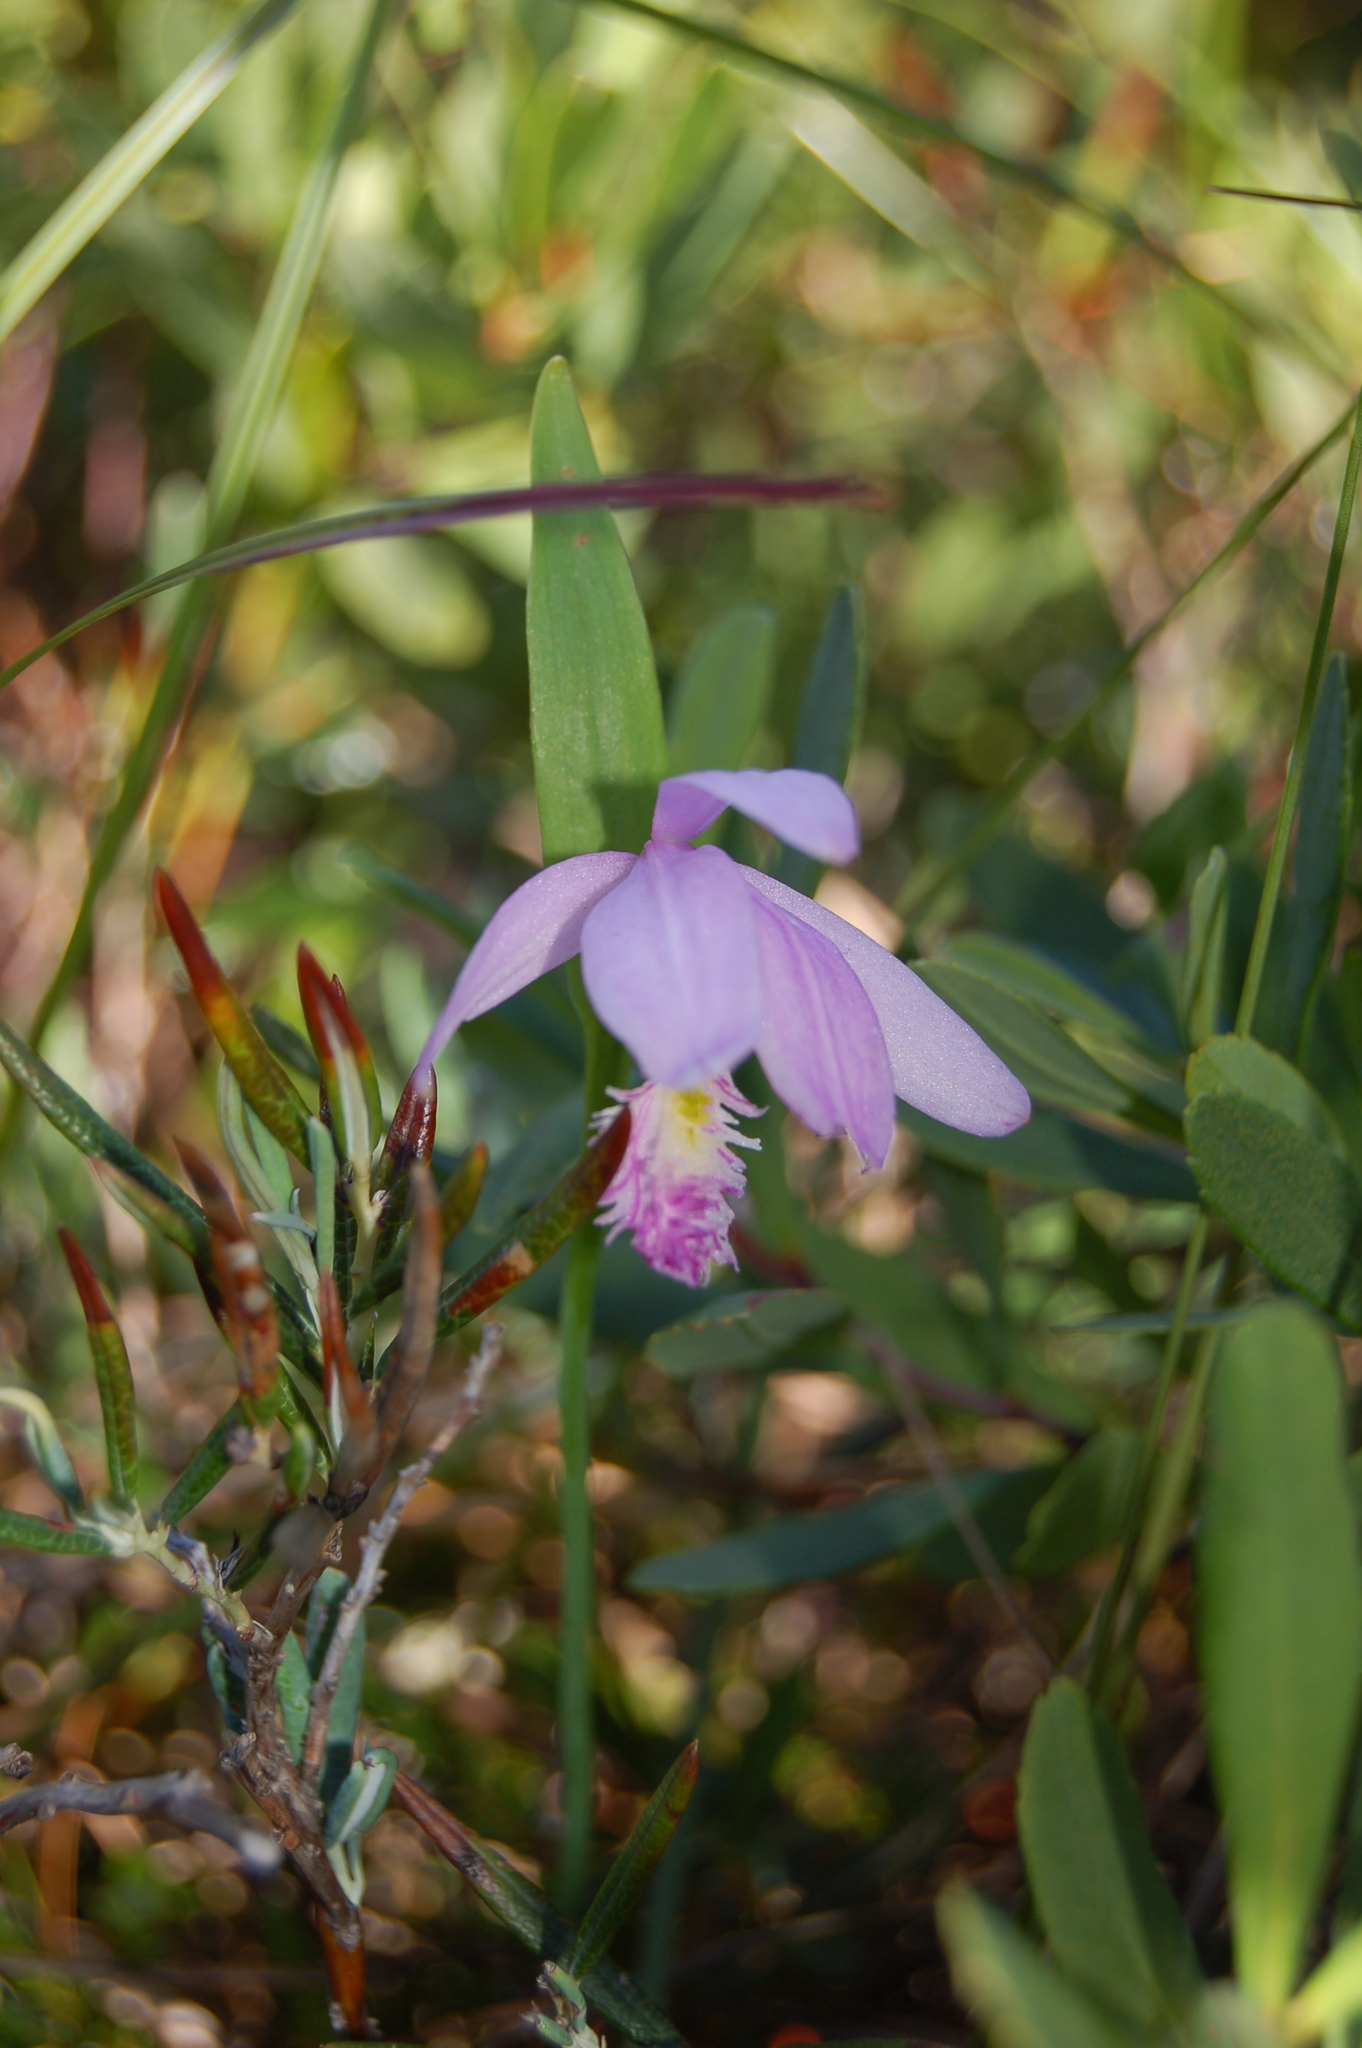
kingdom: Plantae
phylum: Tracheophyta
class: Liliopsida
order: Asparagales
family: Orchidaceae
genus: Pogonia
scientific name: Pogonia ophioglossoides
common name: Rose pogonia
